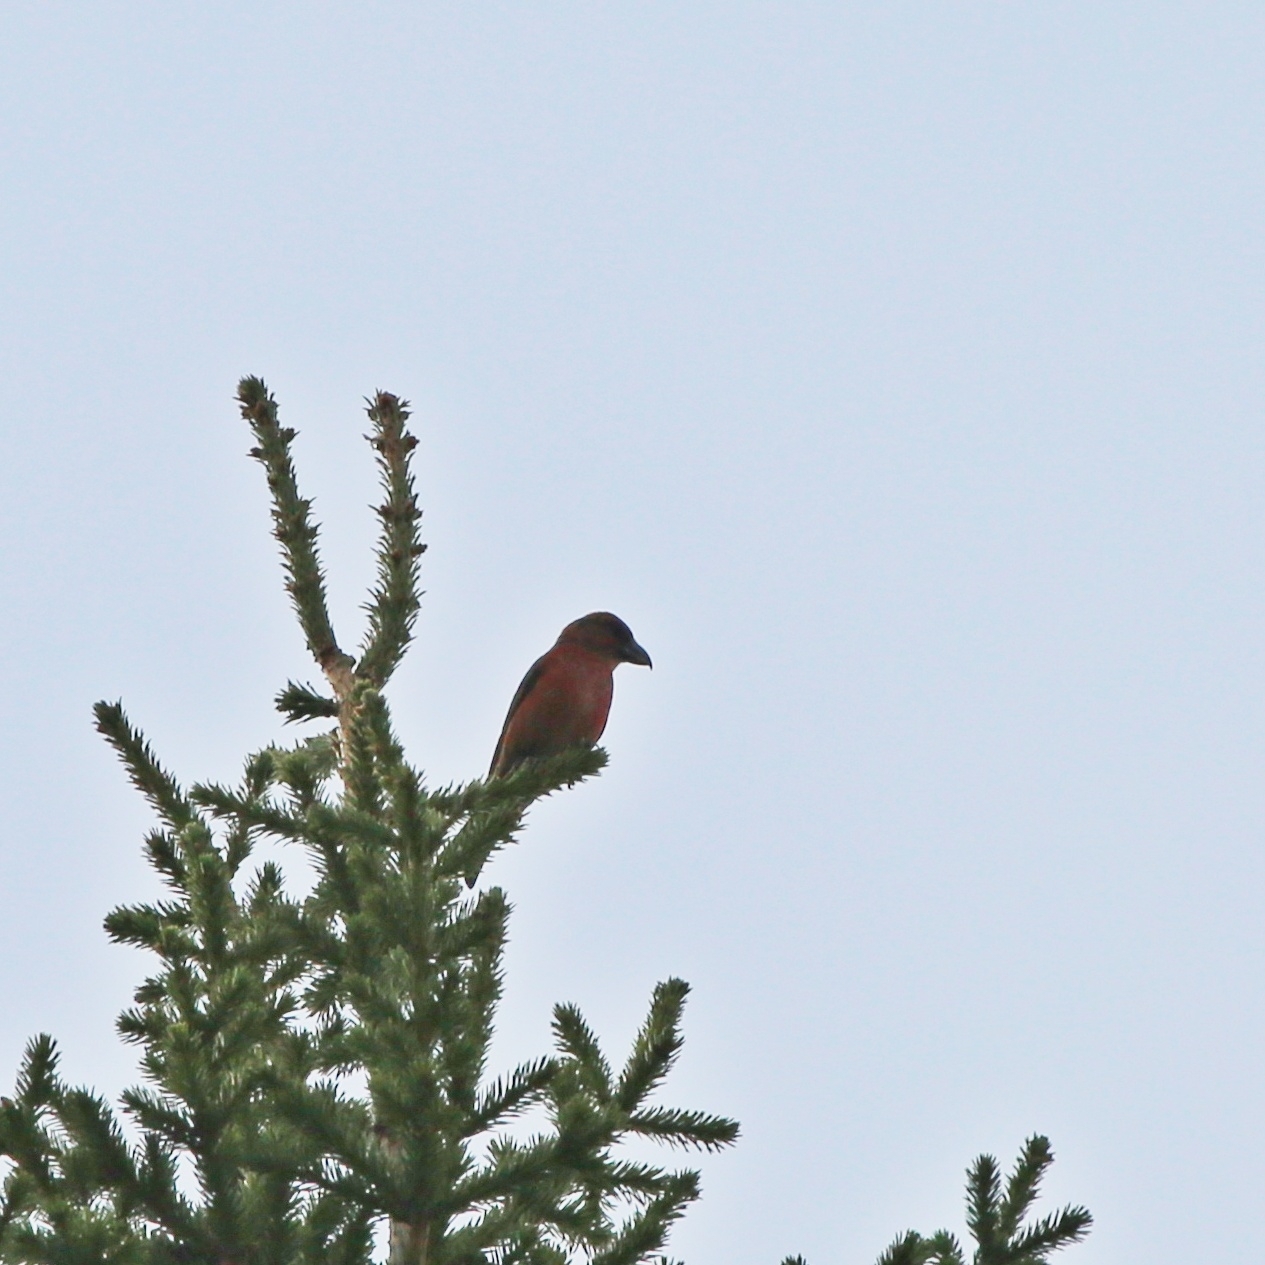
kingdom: Animalia
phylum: Chordata
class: Aves
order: Passeriformes
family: Fringillidae
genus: Loxia
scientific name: Loxia curvirostra
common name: Red crossbill
